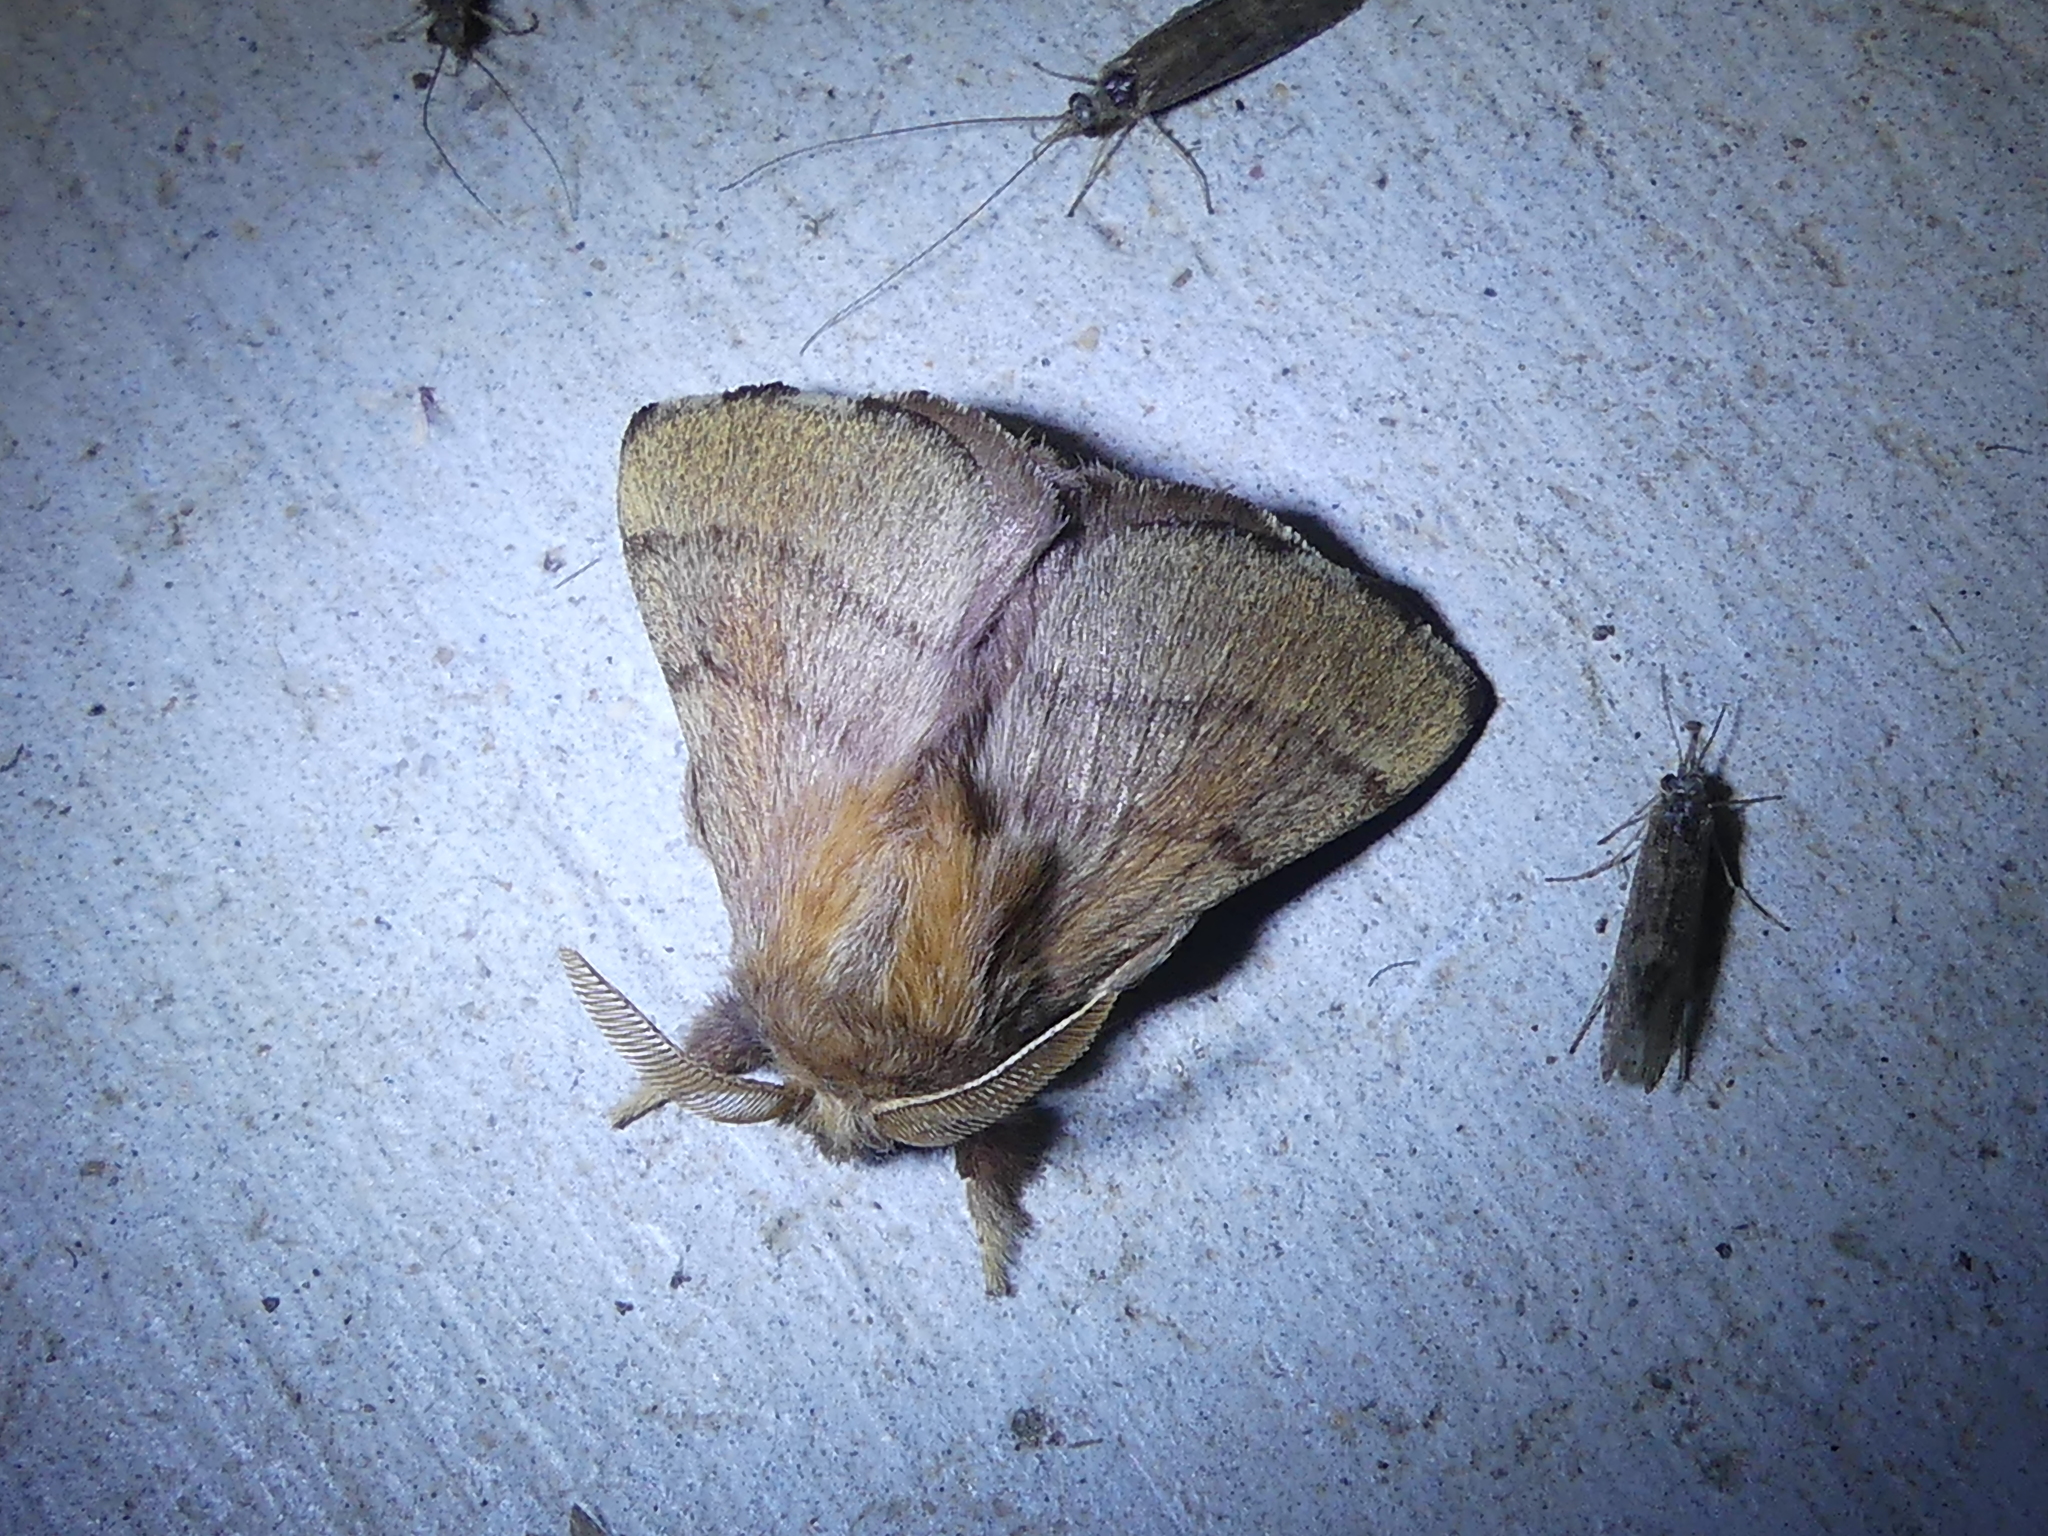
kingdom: Animalia
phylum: Arthropoda
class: Insecta
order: Lepidoptera
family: Lasiocampidae
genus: Malacosoma
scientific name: Malacosoma disstria
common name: Forest tent caterpillar
